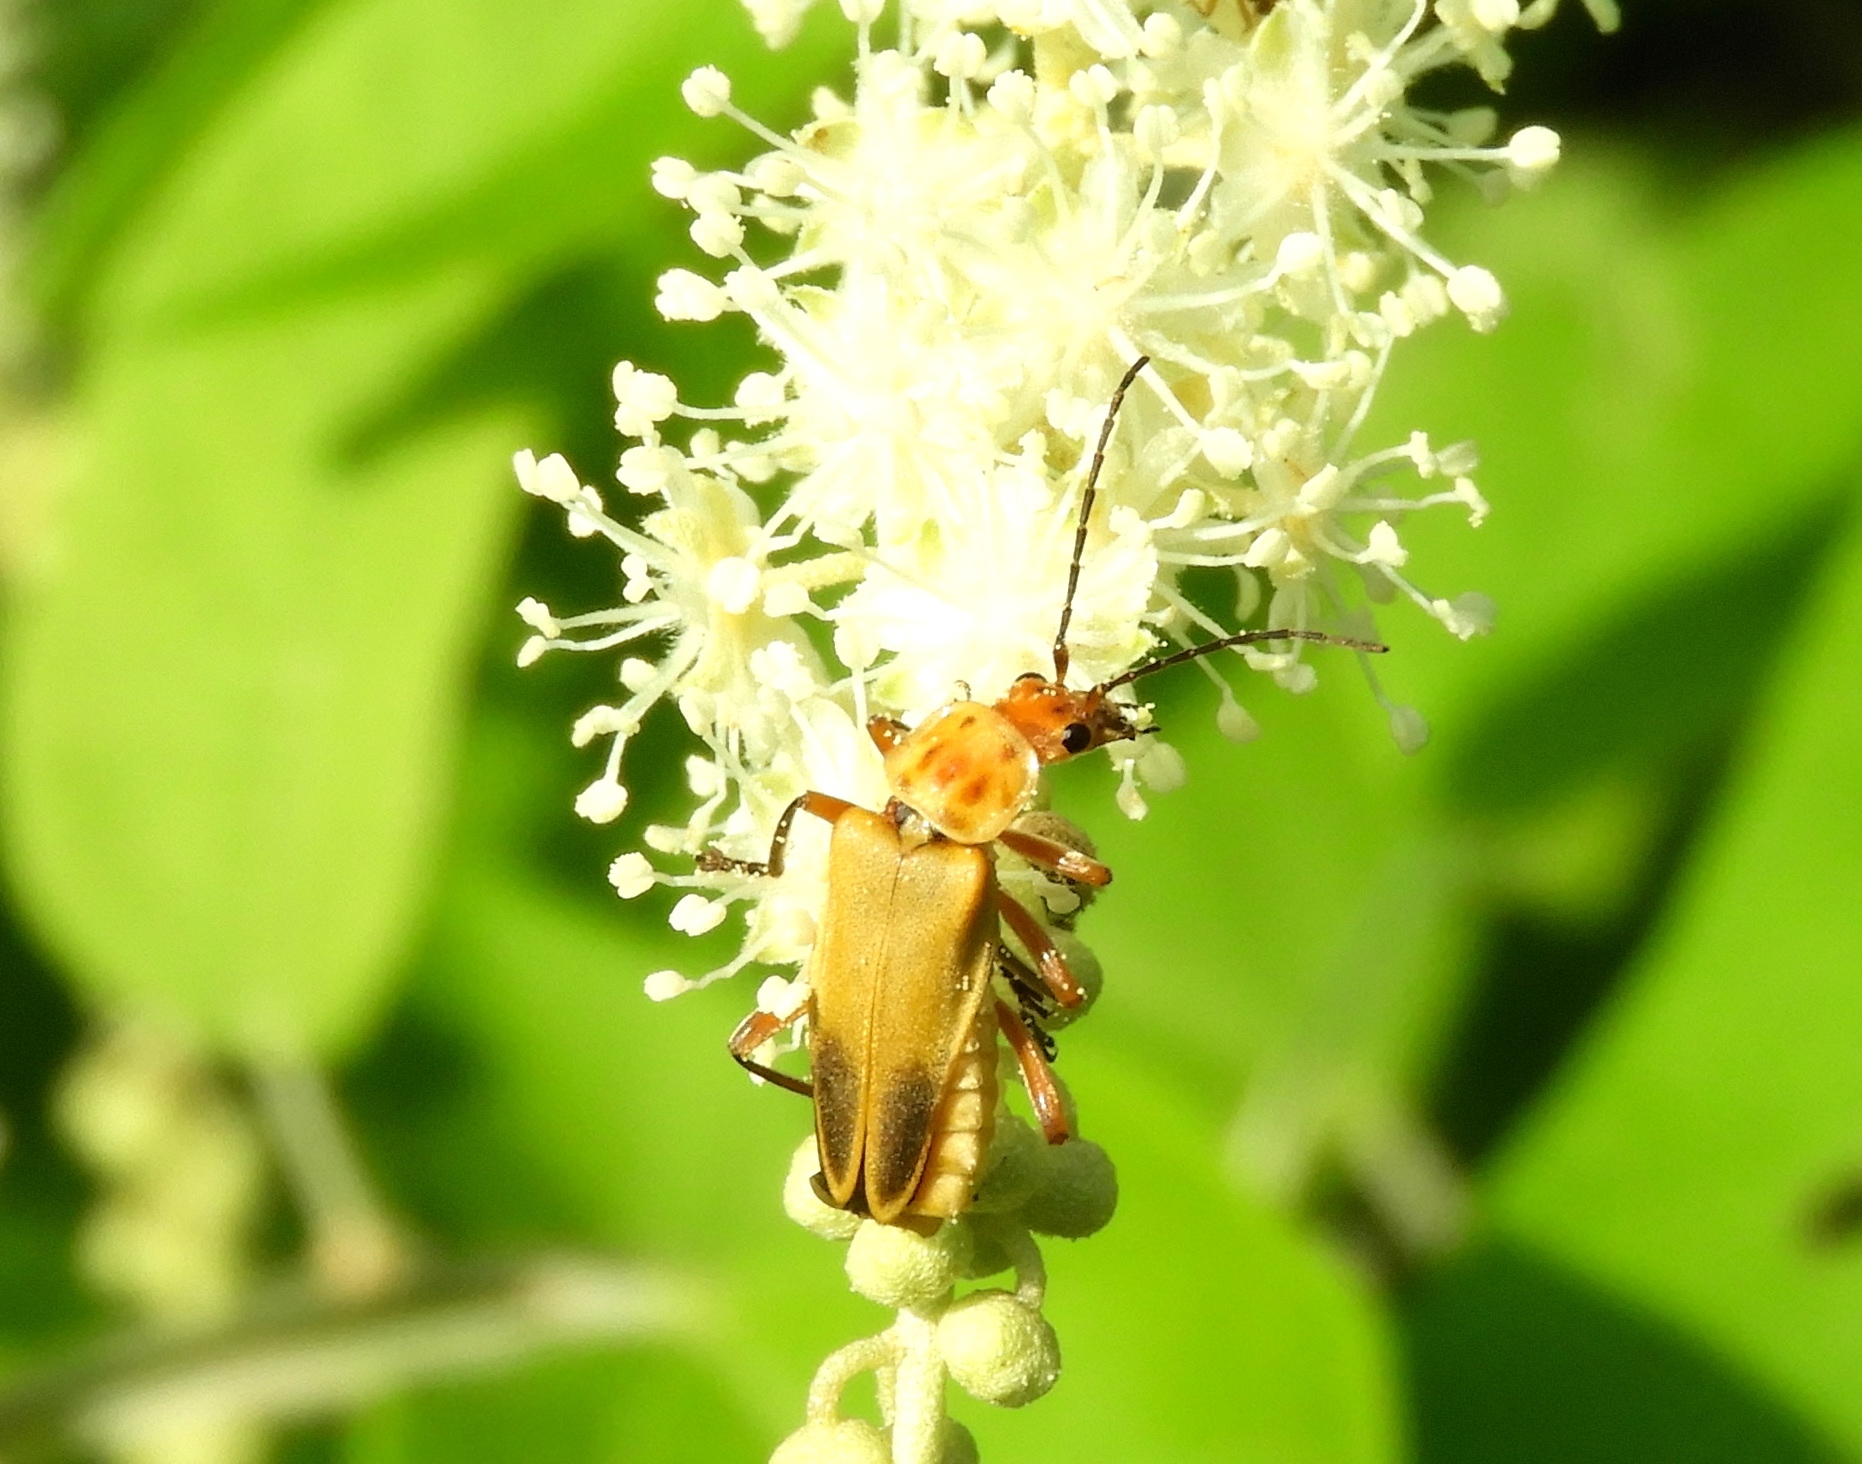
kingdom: Animalia
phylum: Arthropoda
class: Insecta
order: Coleoptera
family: Cantharidae
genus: Chauliognathus
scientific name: Chauliognathus
